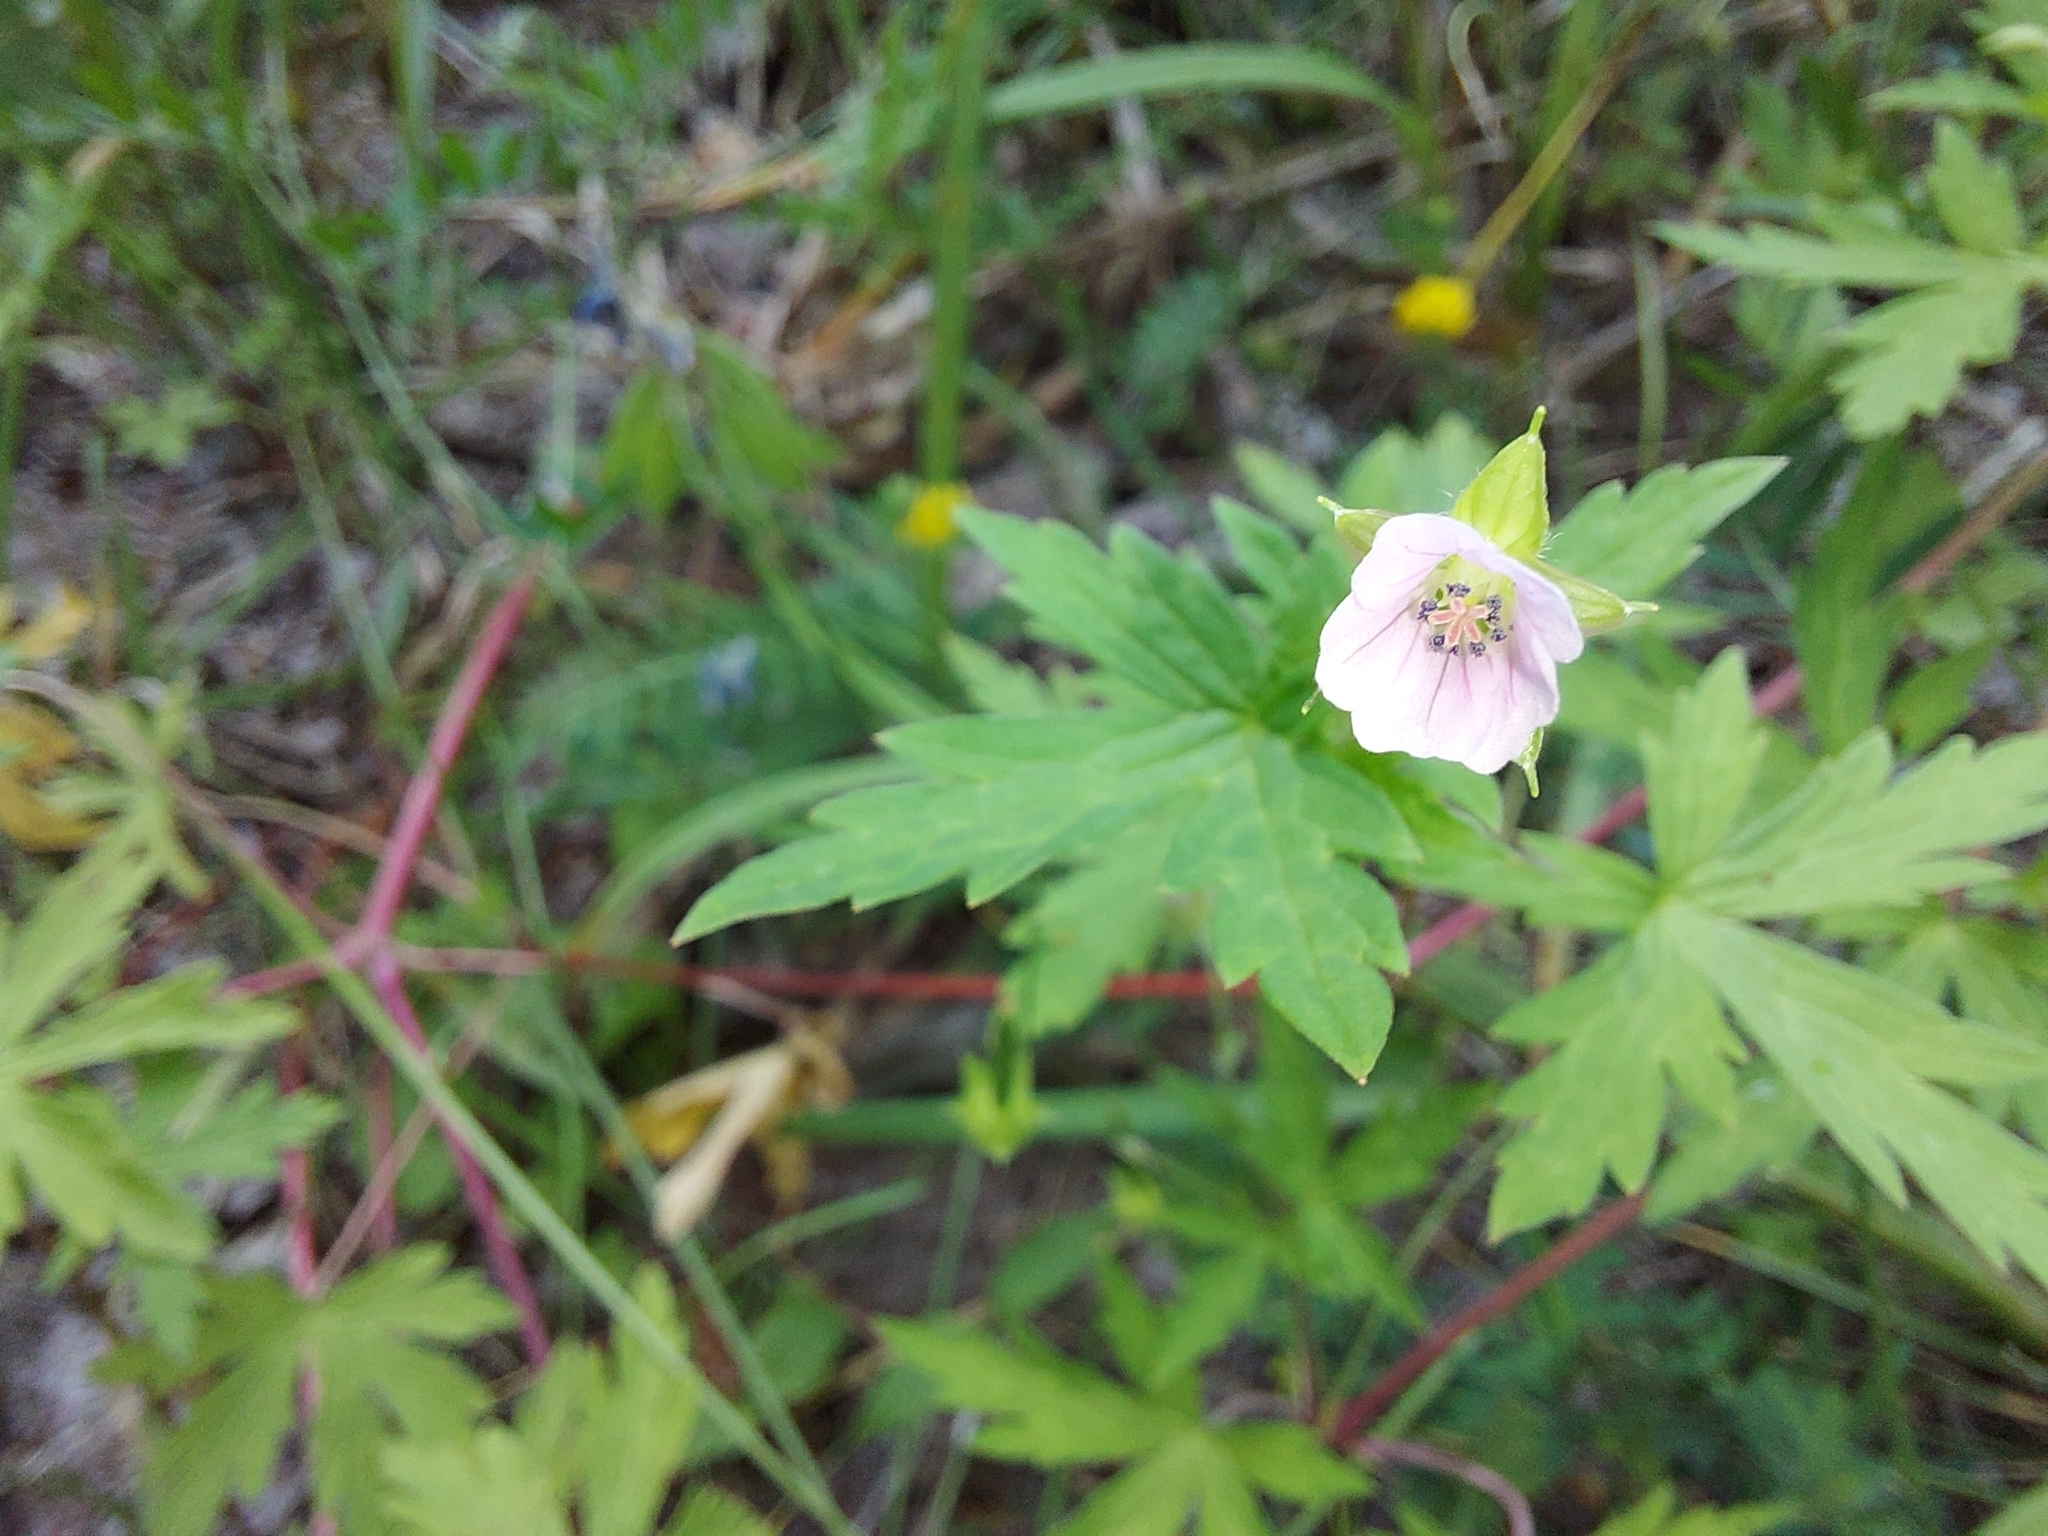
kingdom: Plantae
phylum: Tracheophyta
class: Magnoliopsida
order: Geraniales
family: Geraniaceae
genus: Geranium
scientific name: Geranium sibiricum
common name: Siberian crane's-bill
